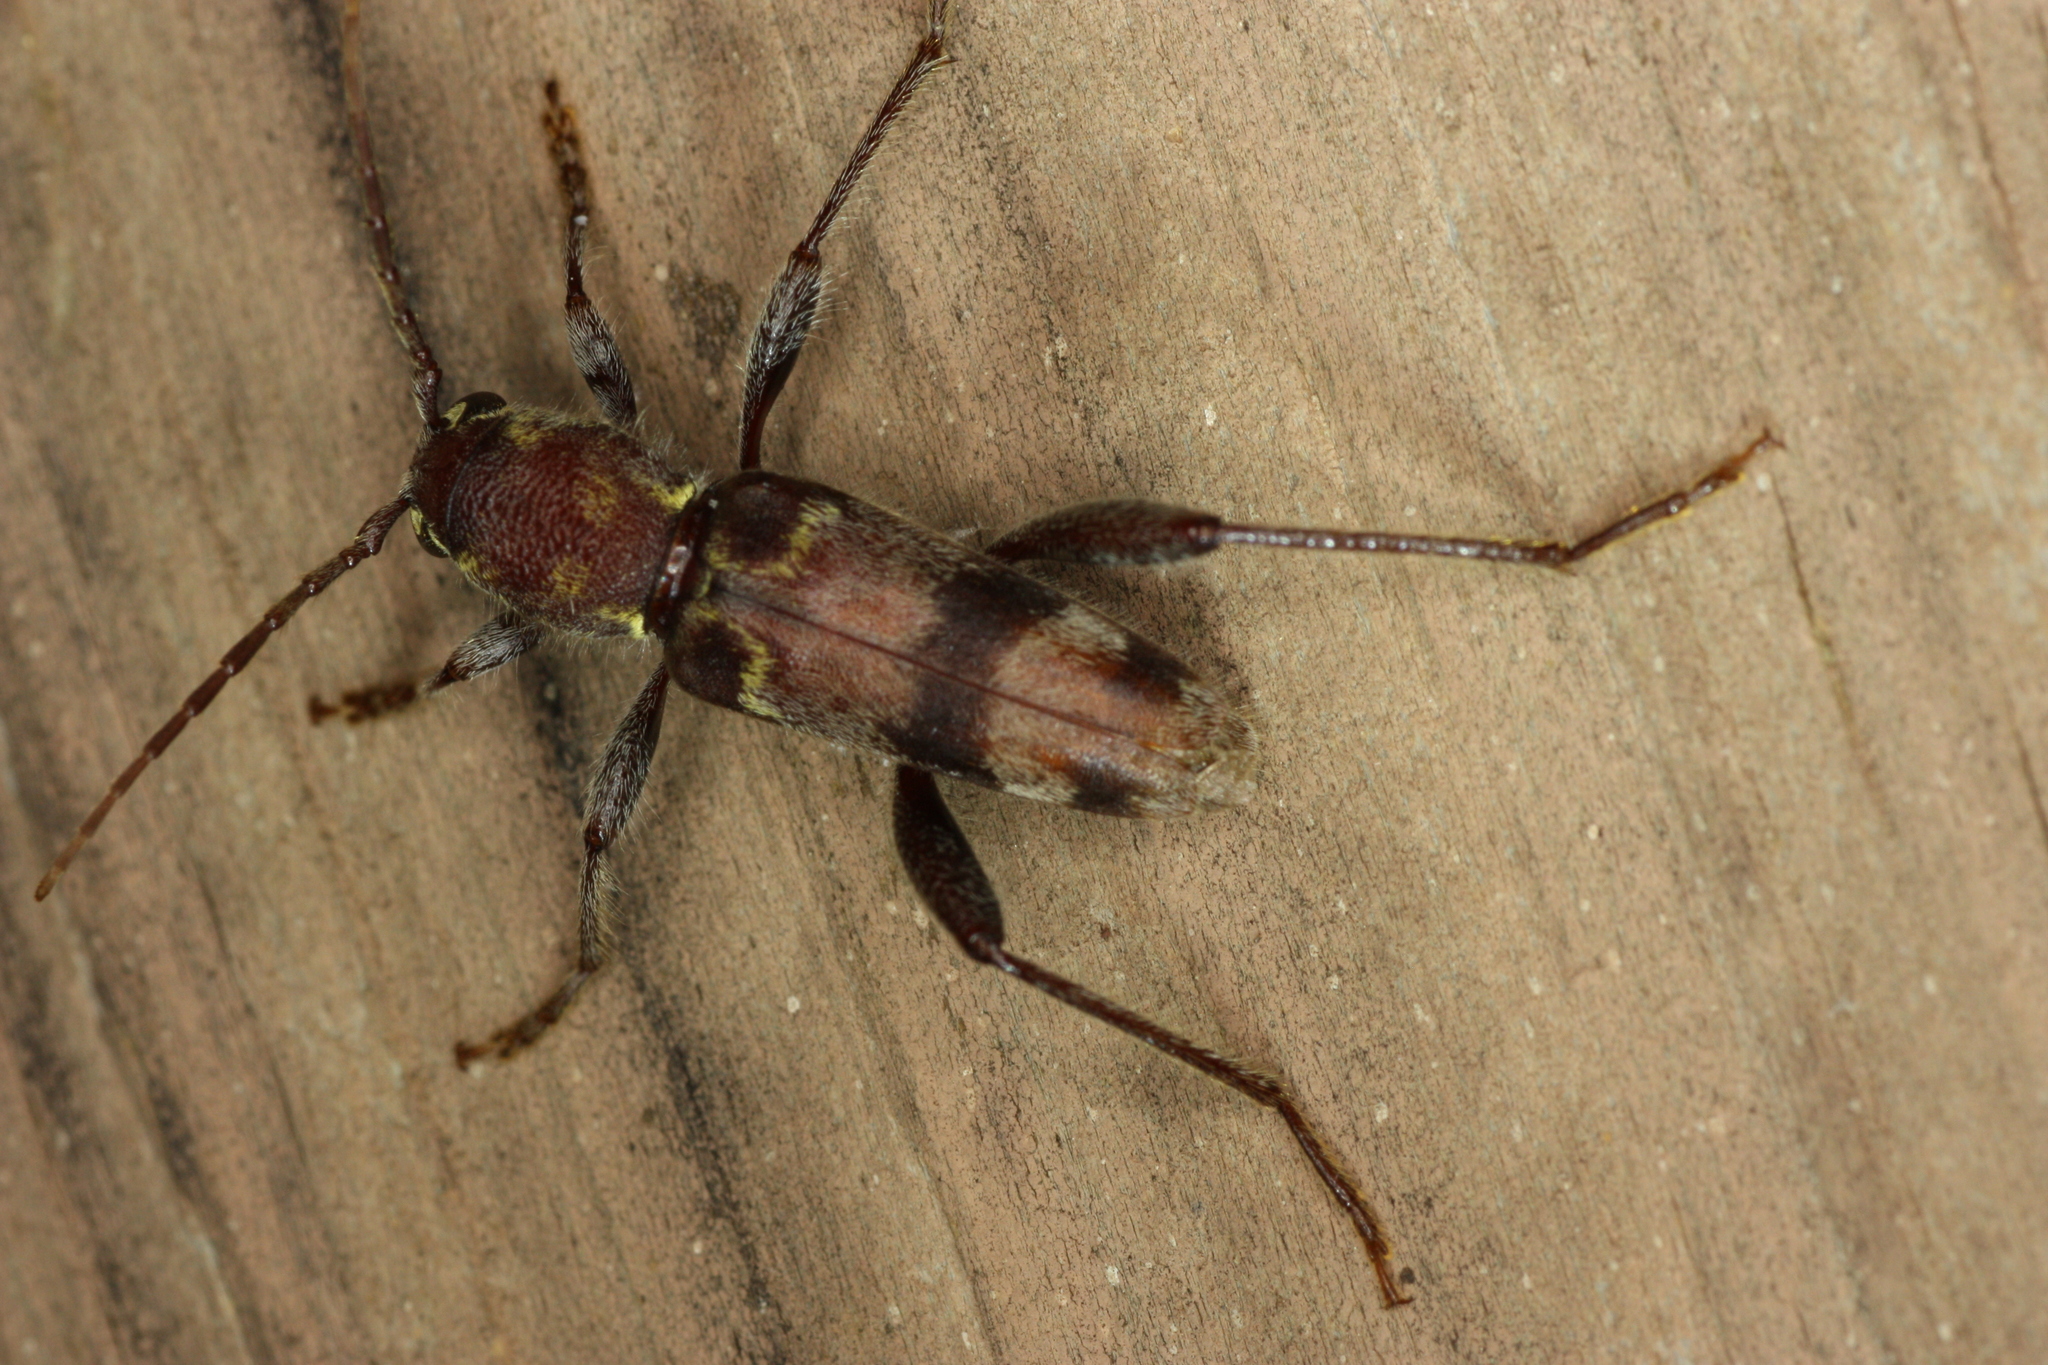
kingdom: Animalia
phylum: Arthropoda
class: Insecta
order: Coleoptera
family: Cerambycidae
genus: Xylotrechus
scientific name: Xylotrechus colonus
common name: Long-horned beetle
